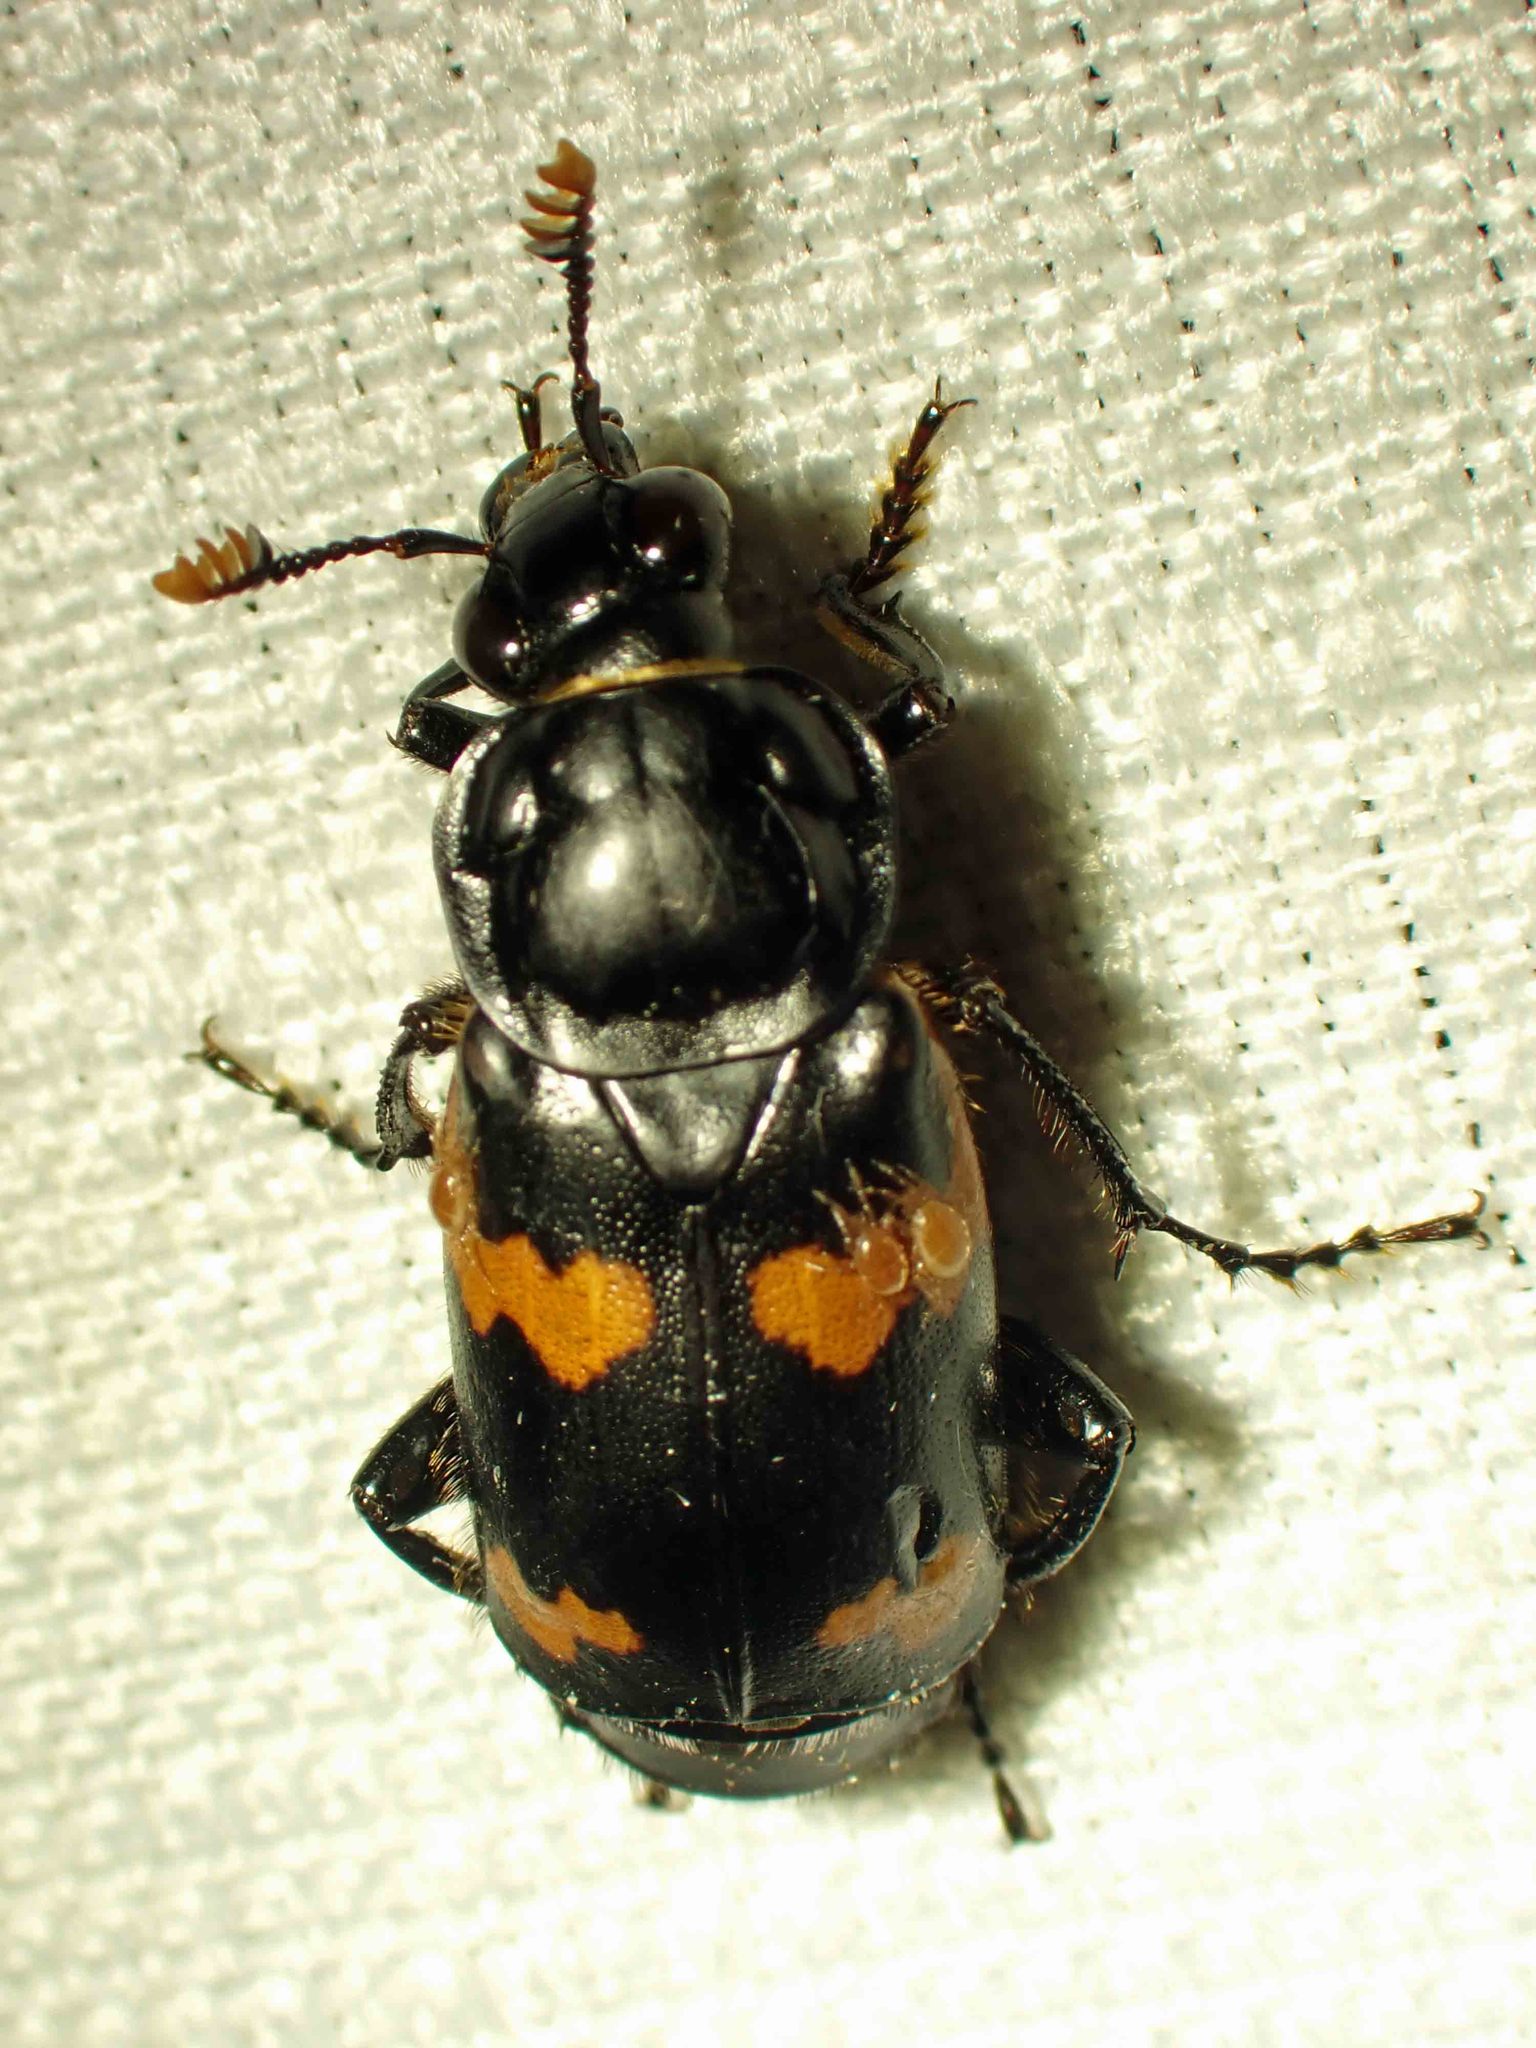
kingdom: Animalia
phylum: Arthropoda
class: Insecta
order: Coleoptera
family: Staphylinidae
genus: Nicrophorus
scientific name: Nicrophorus sayi
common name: Say's burying beetle
